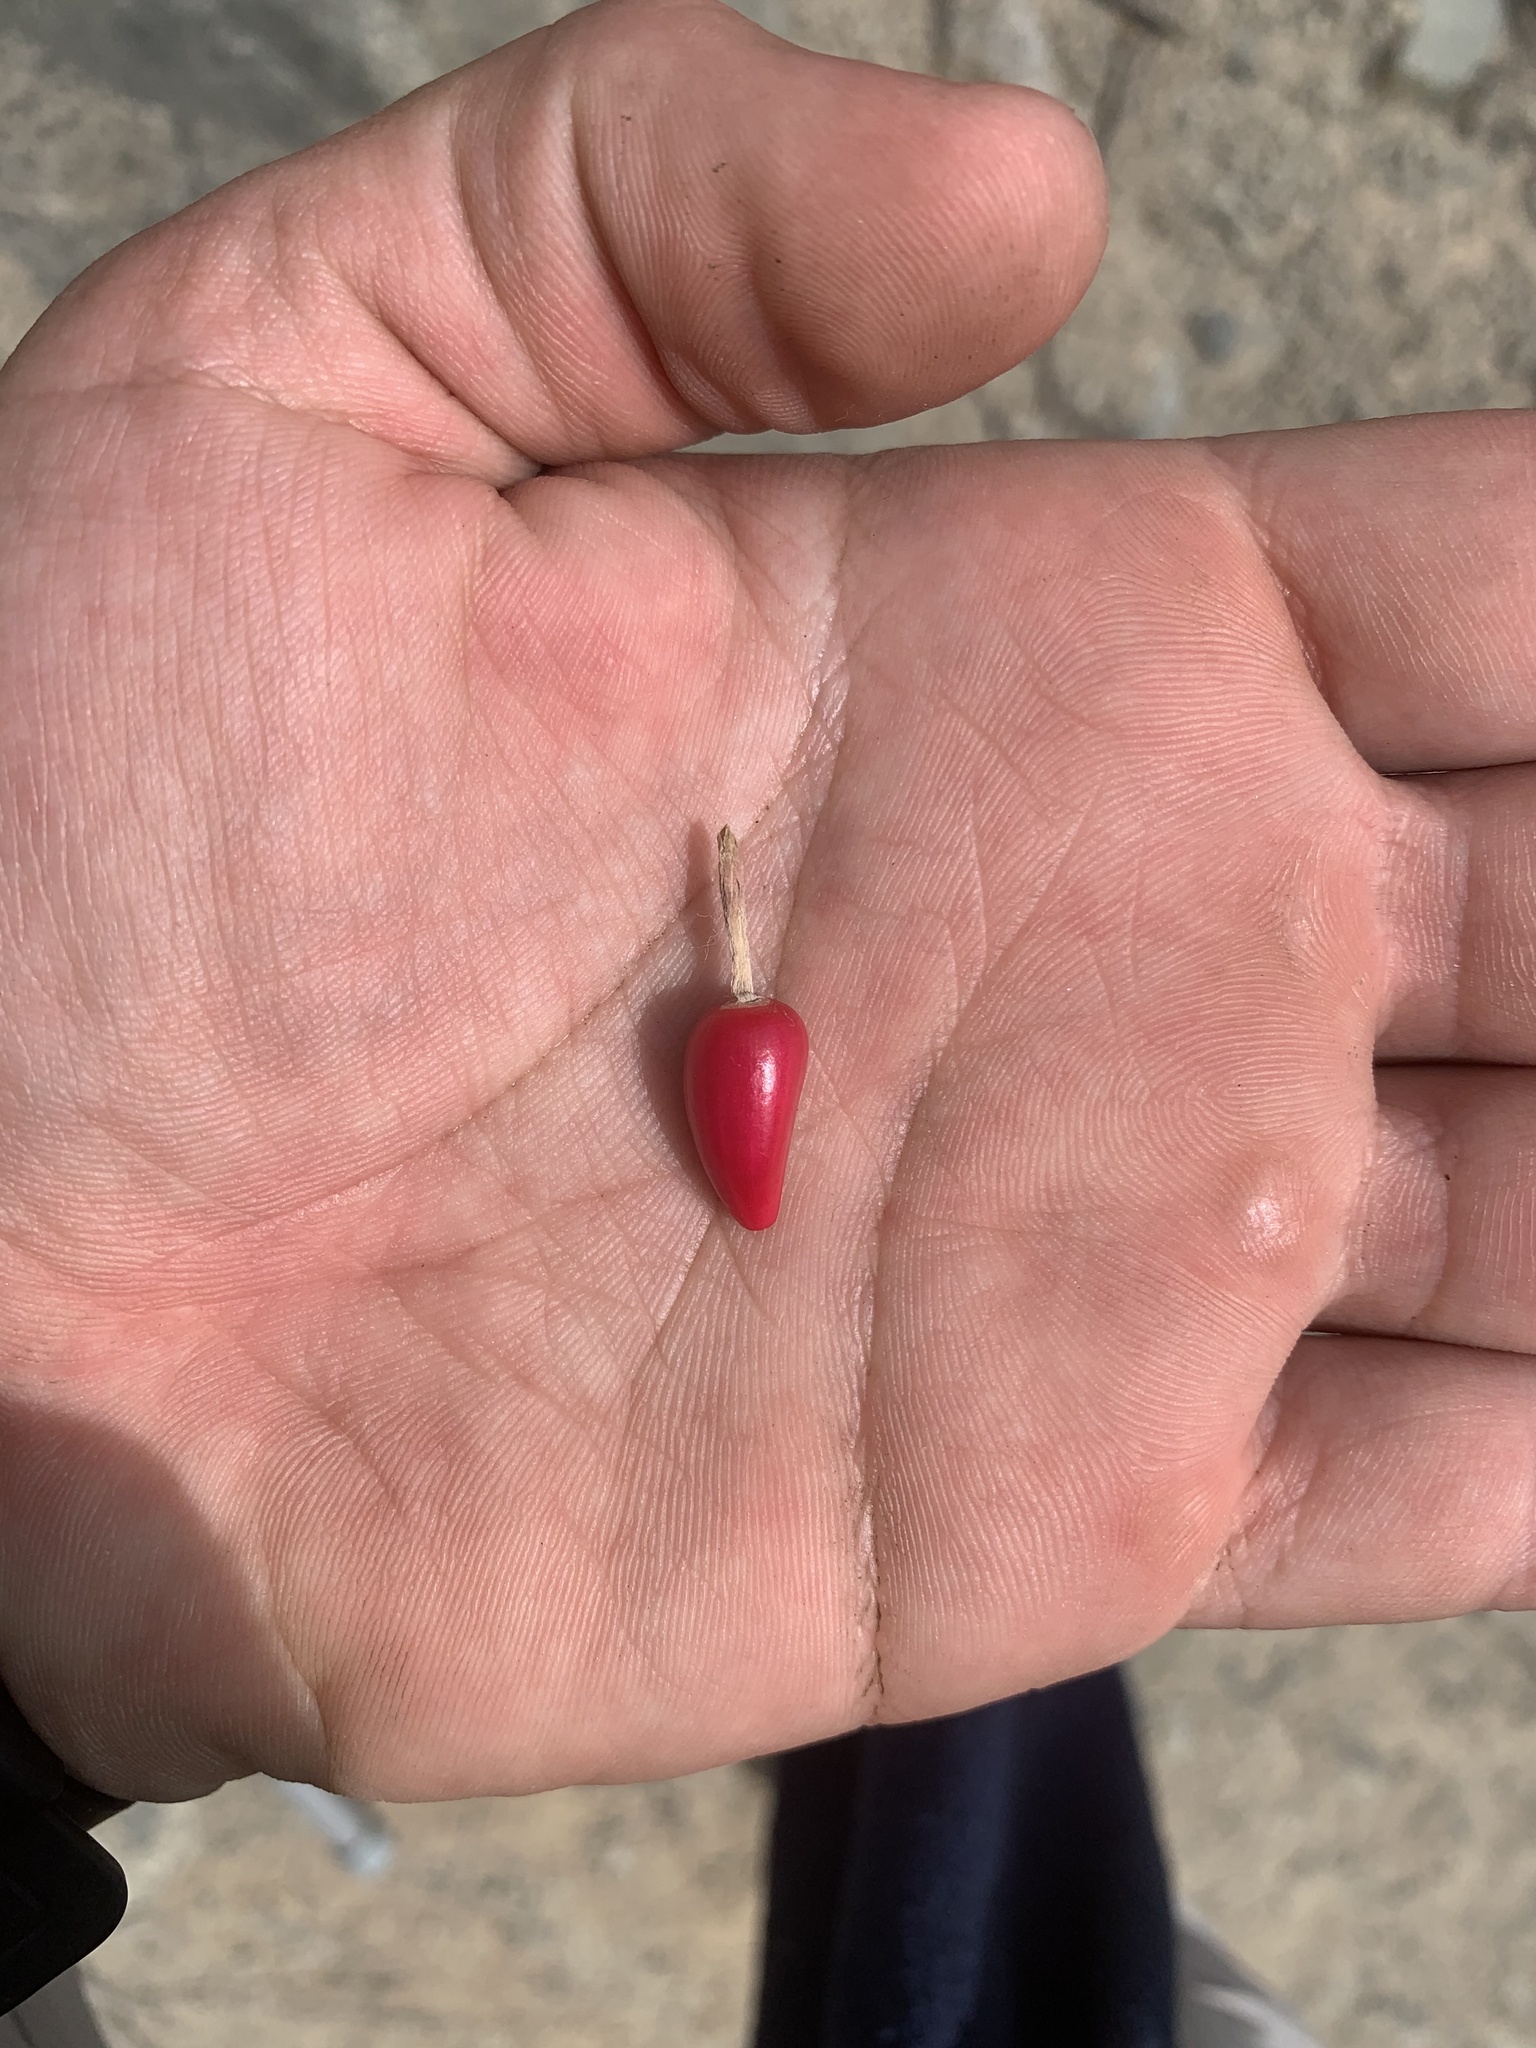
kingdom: Plantae
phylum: Tracheophyta
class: Magnoliopsida
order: Caryophyllales
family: Cactaceae
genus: Melocactus
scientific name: Melocactus peruvianus
